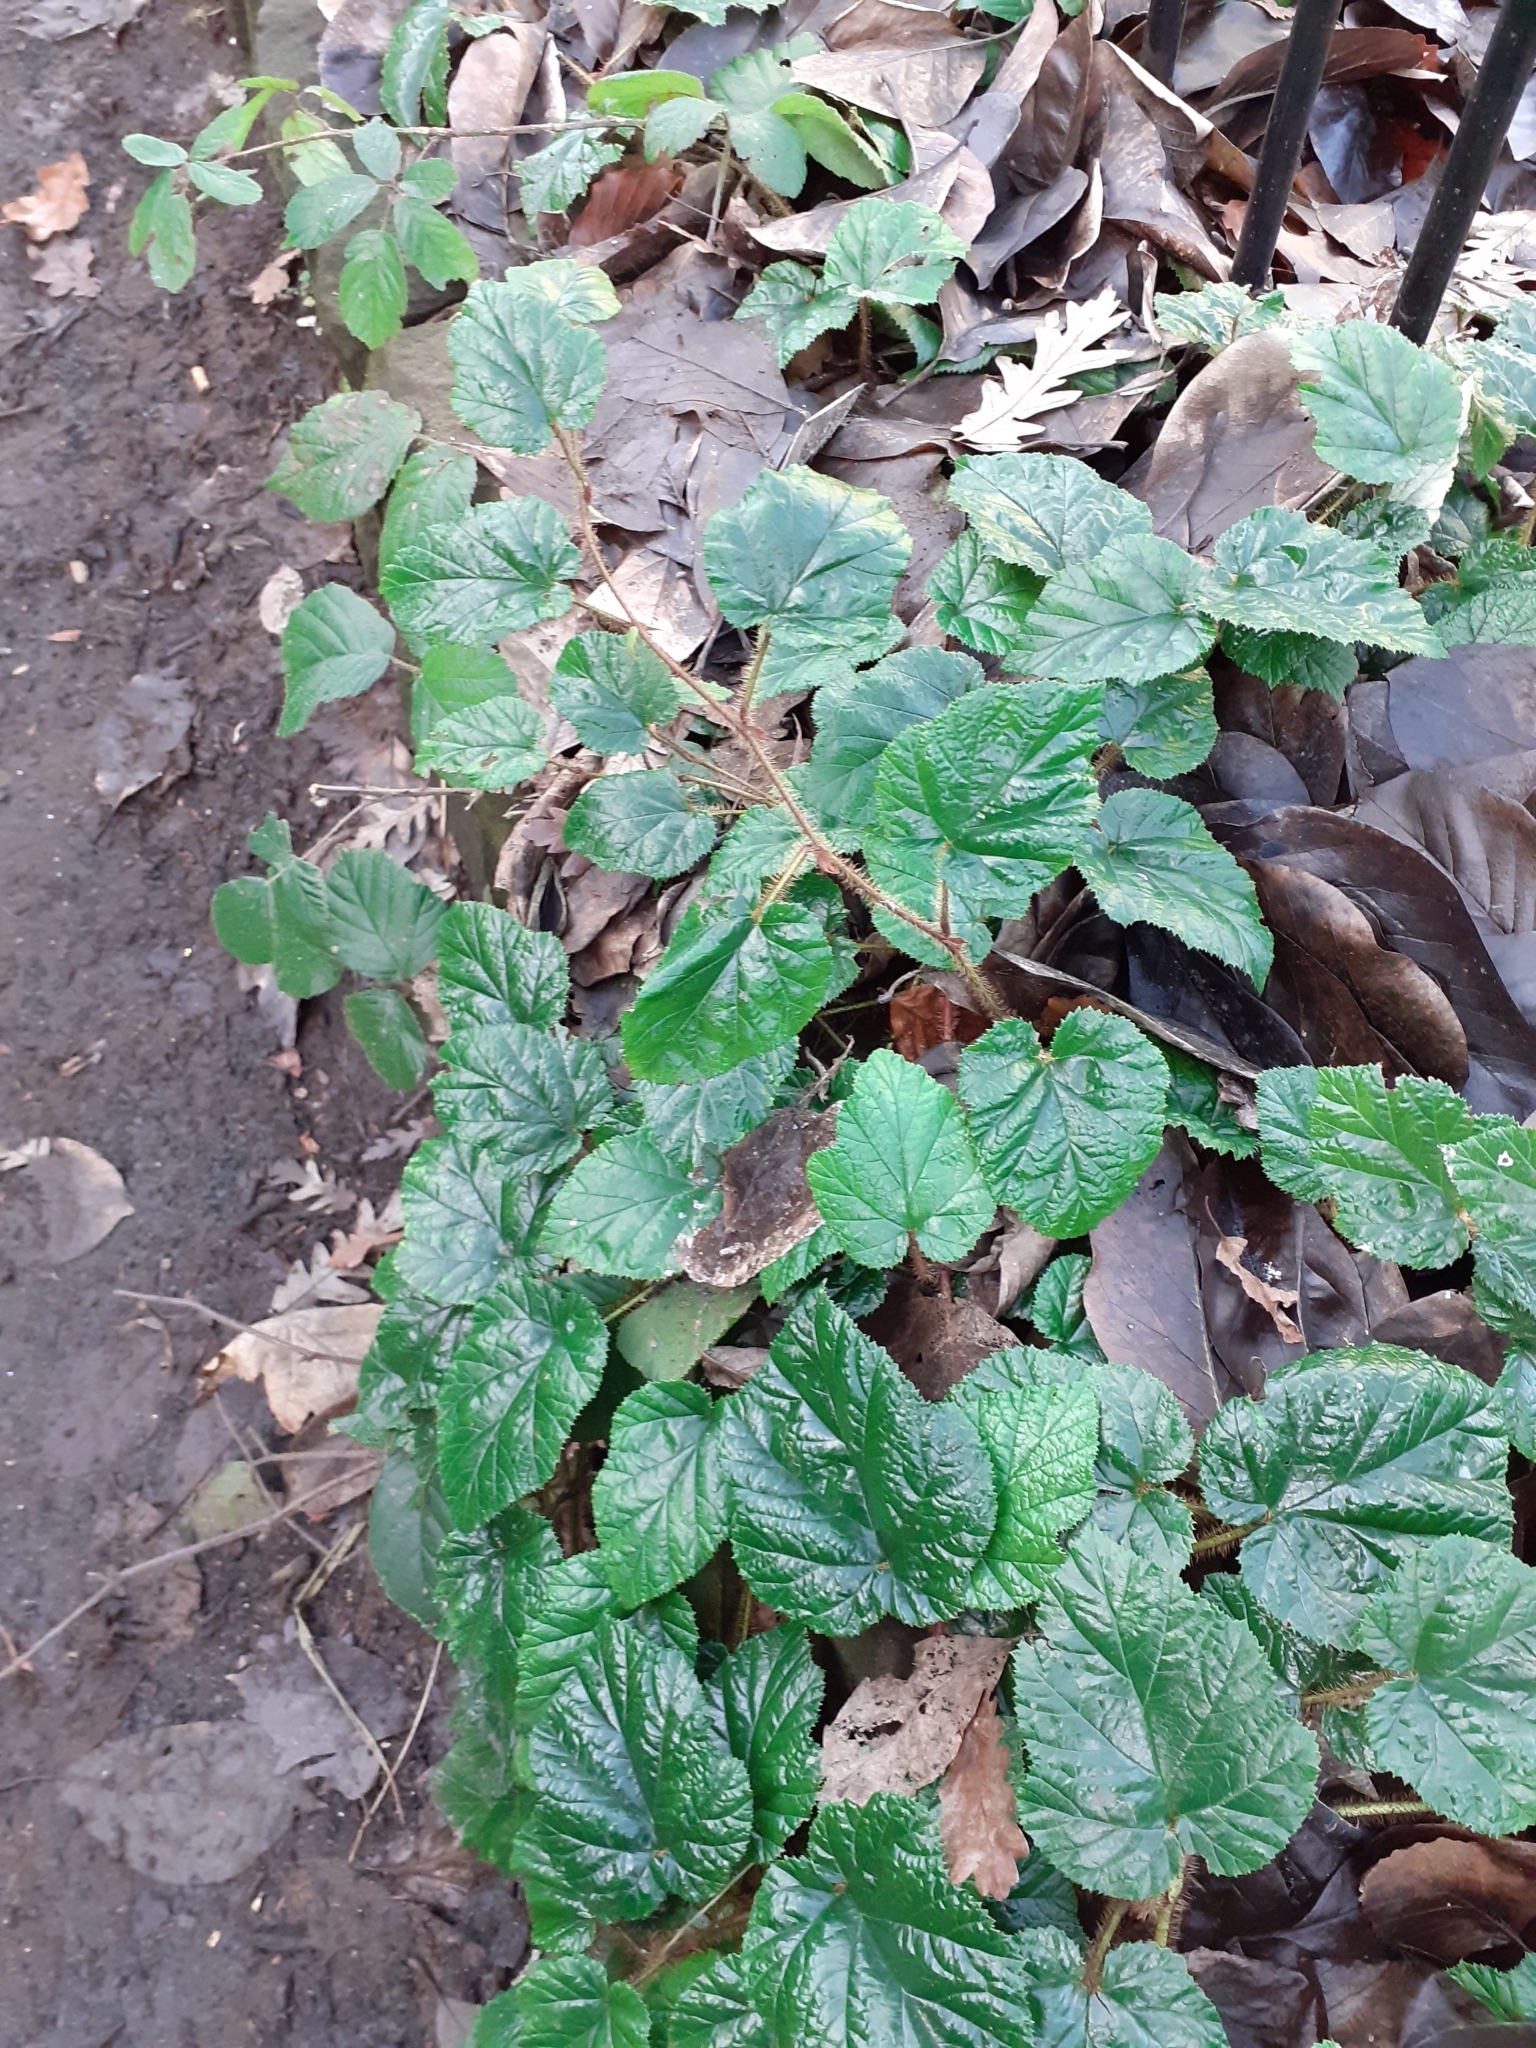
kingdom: Plantae
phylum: Tracheophyta
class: Magnoliopsida
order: Rosales
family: Rosaceae
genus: Rubus
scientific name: Rubus tricolor
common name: Chinese bramble
